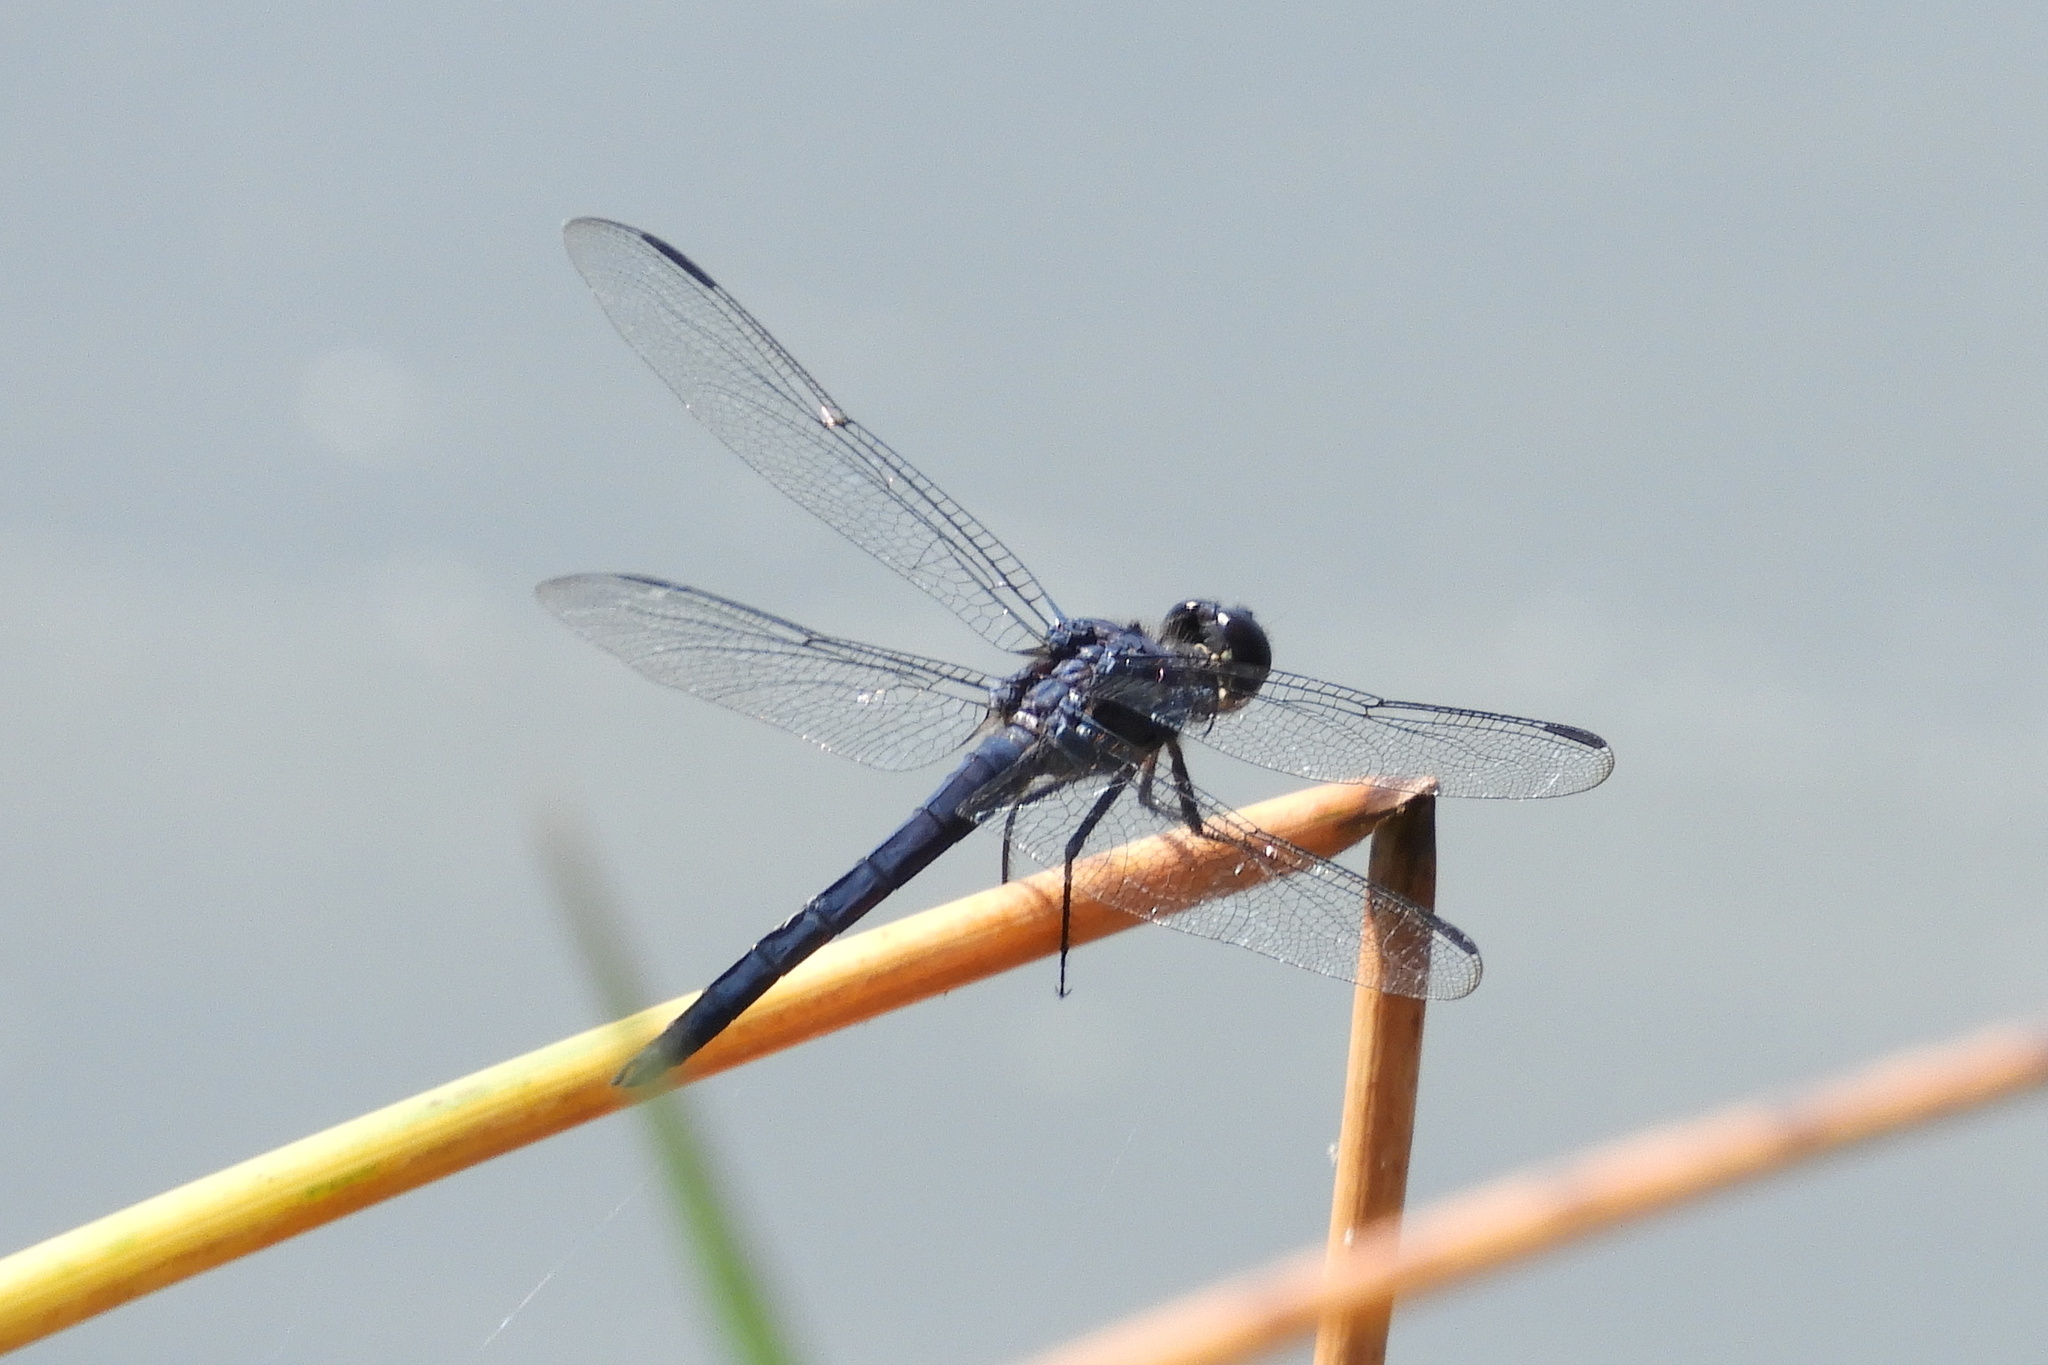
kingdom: Animalia
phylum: Arthropoda
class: Insecta
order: Odonata
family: Libellulidae
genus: Libellula
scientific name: Libellula incesta
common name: Slaty skimmer
